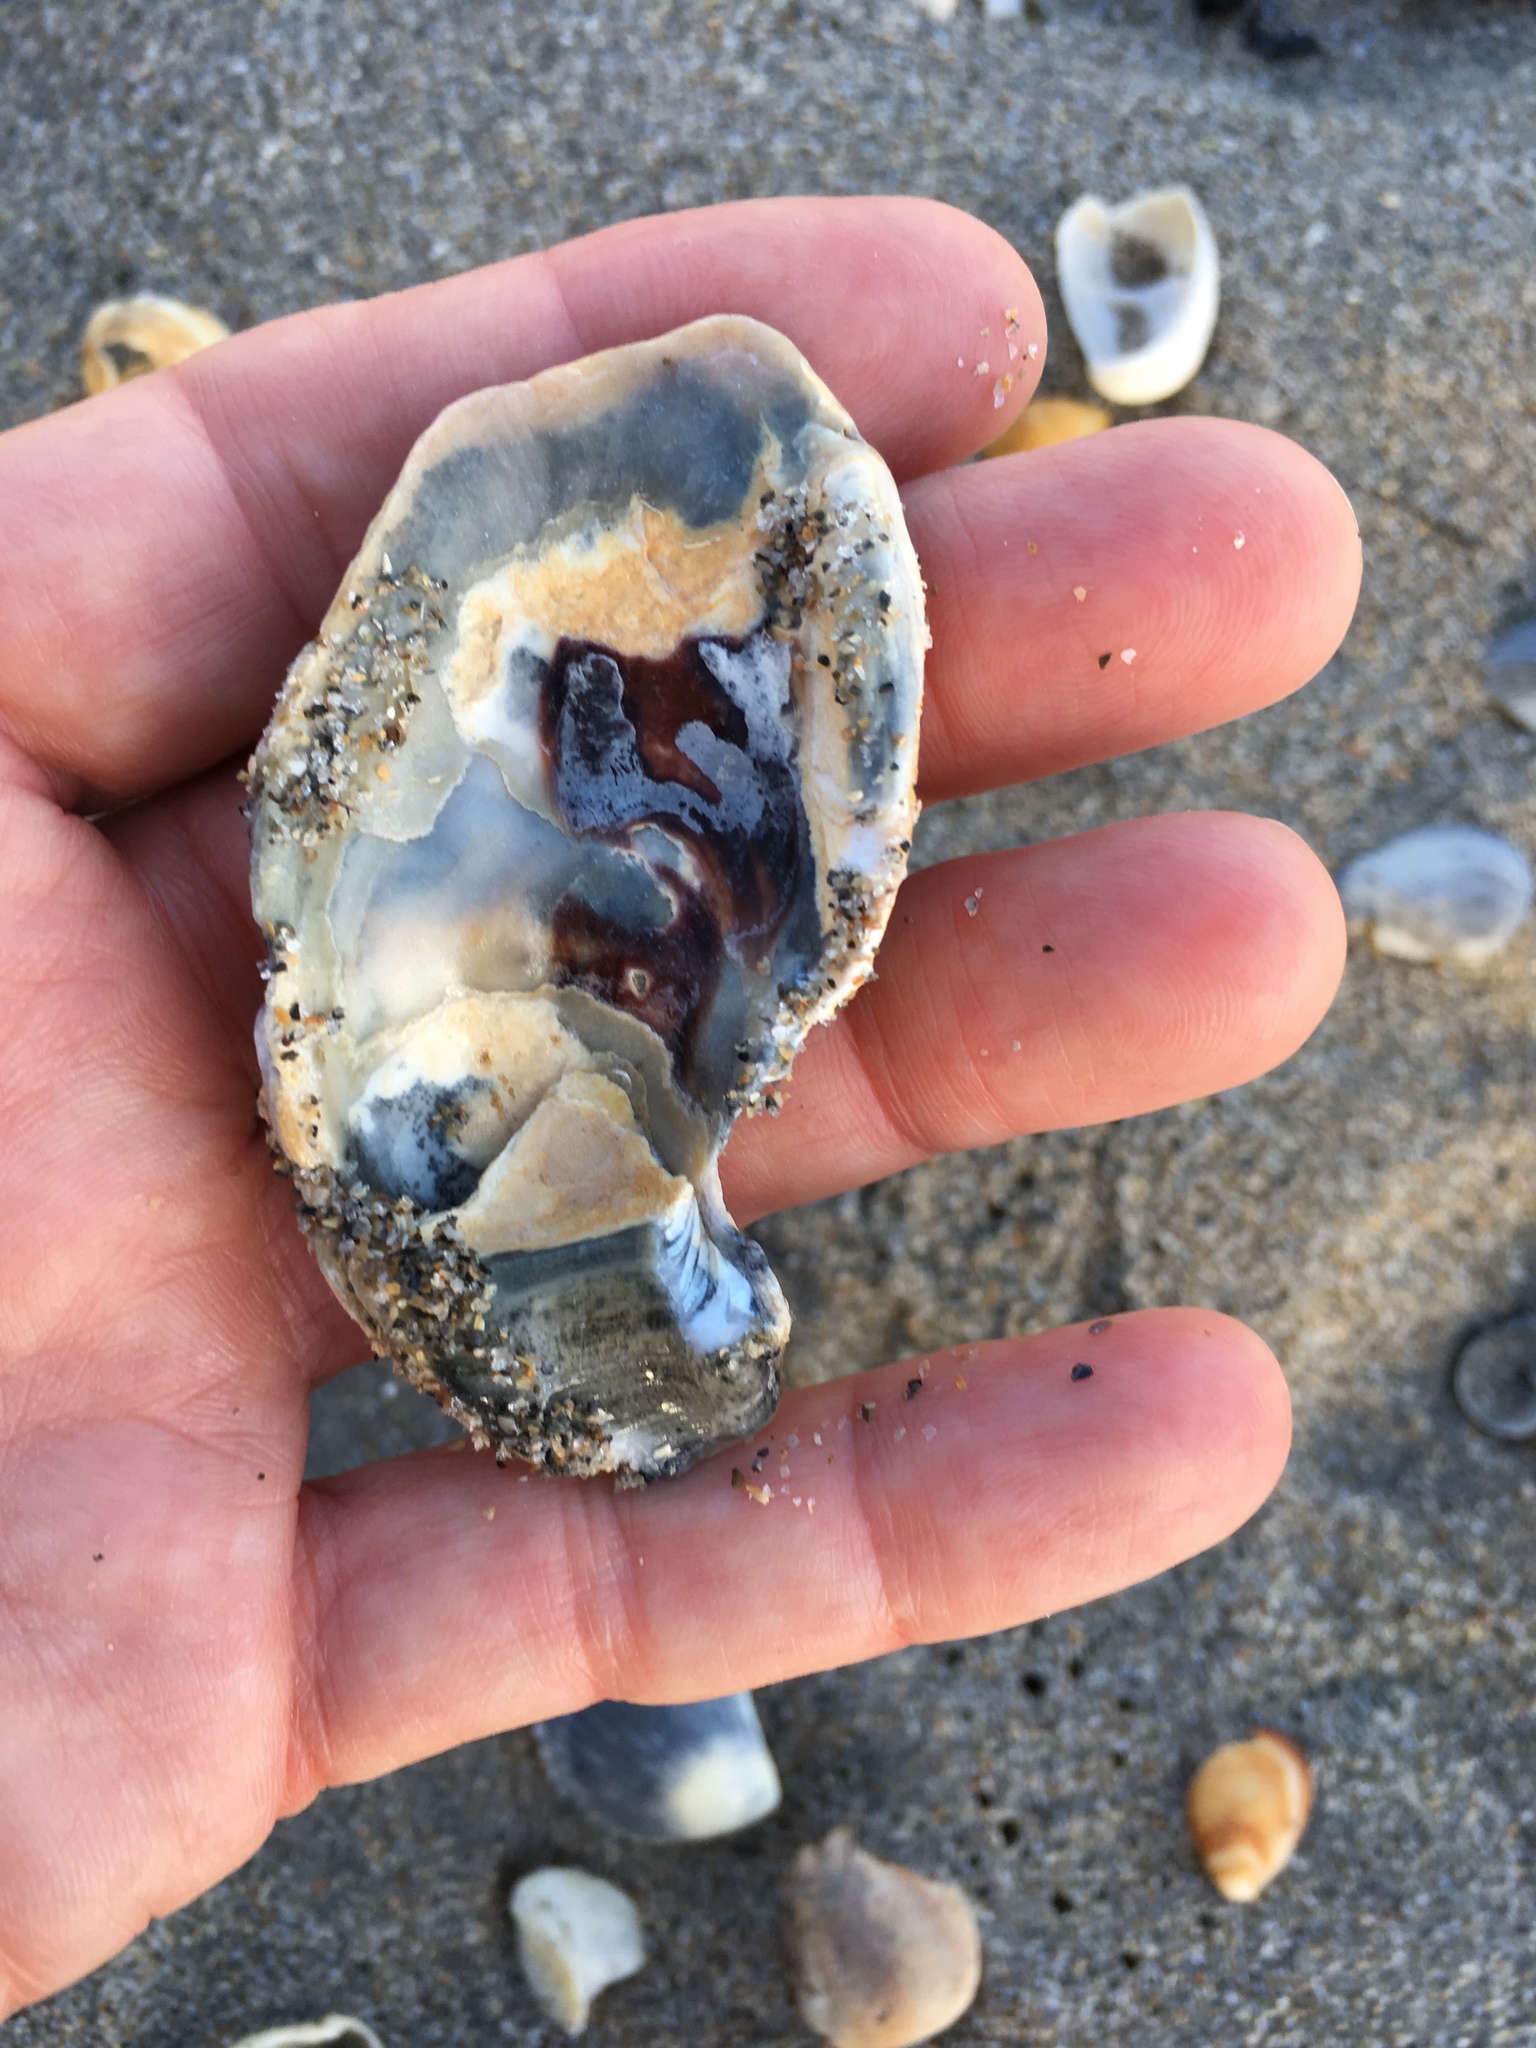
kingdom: Animalia
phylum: Mollusca
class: Bivalvia
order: Ostreida
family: Ostreidae
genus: Crassostrea
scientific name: Crassostrea virginica
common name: American oyster
